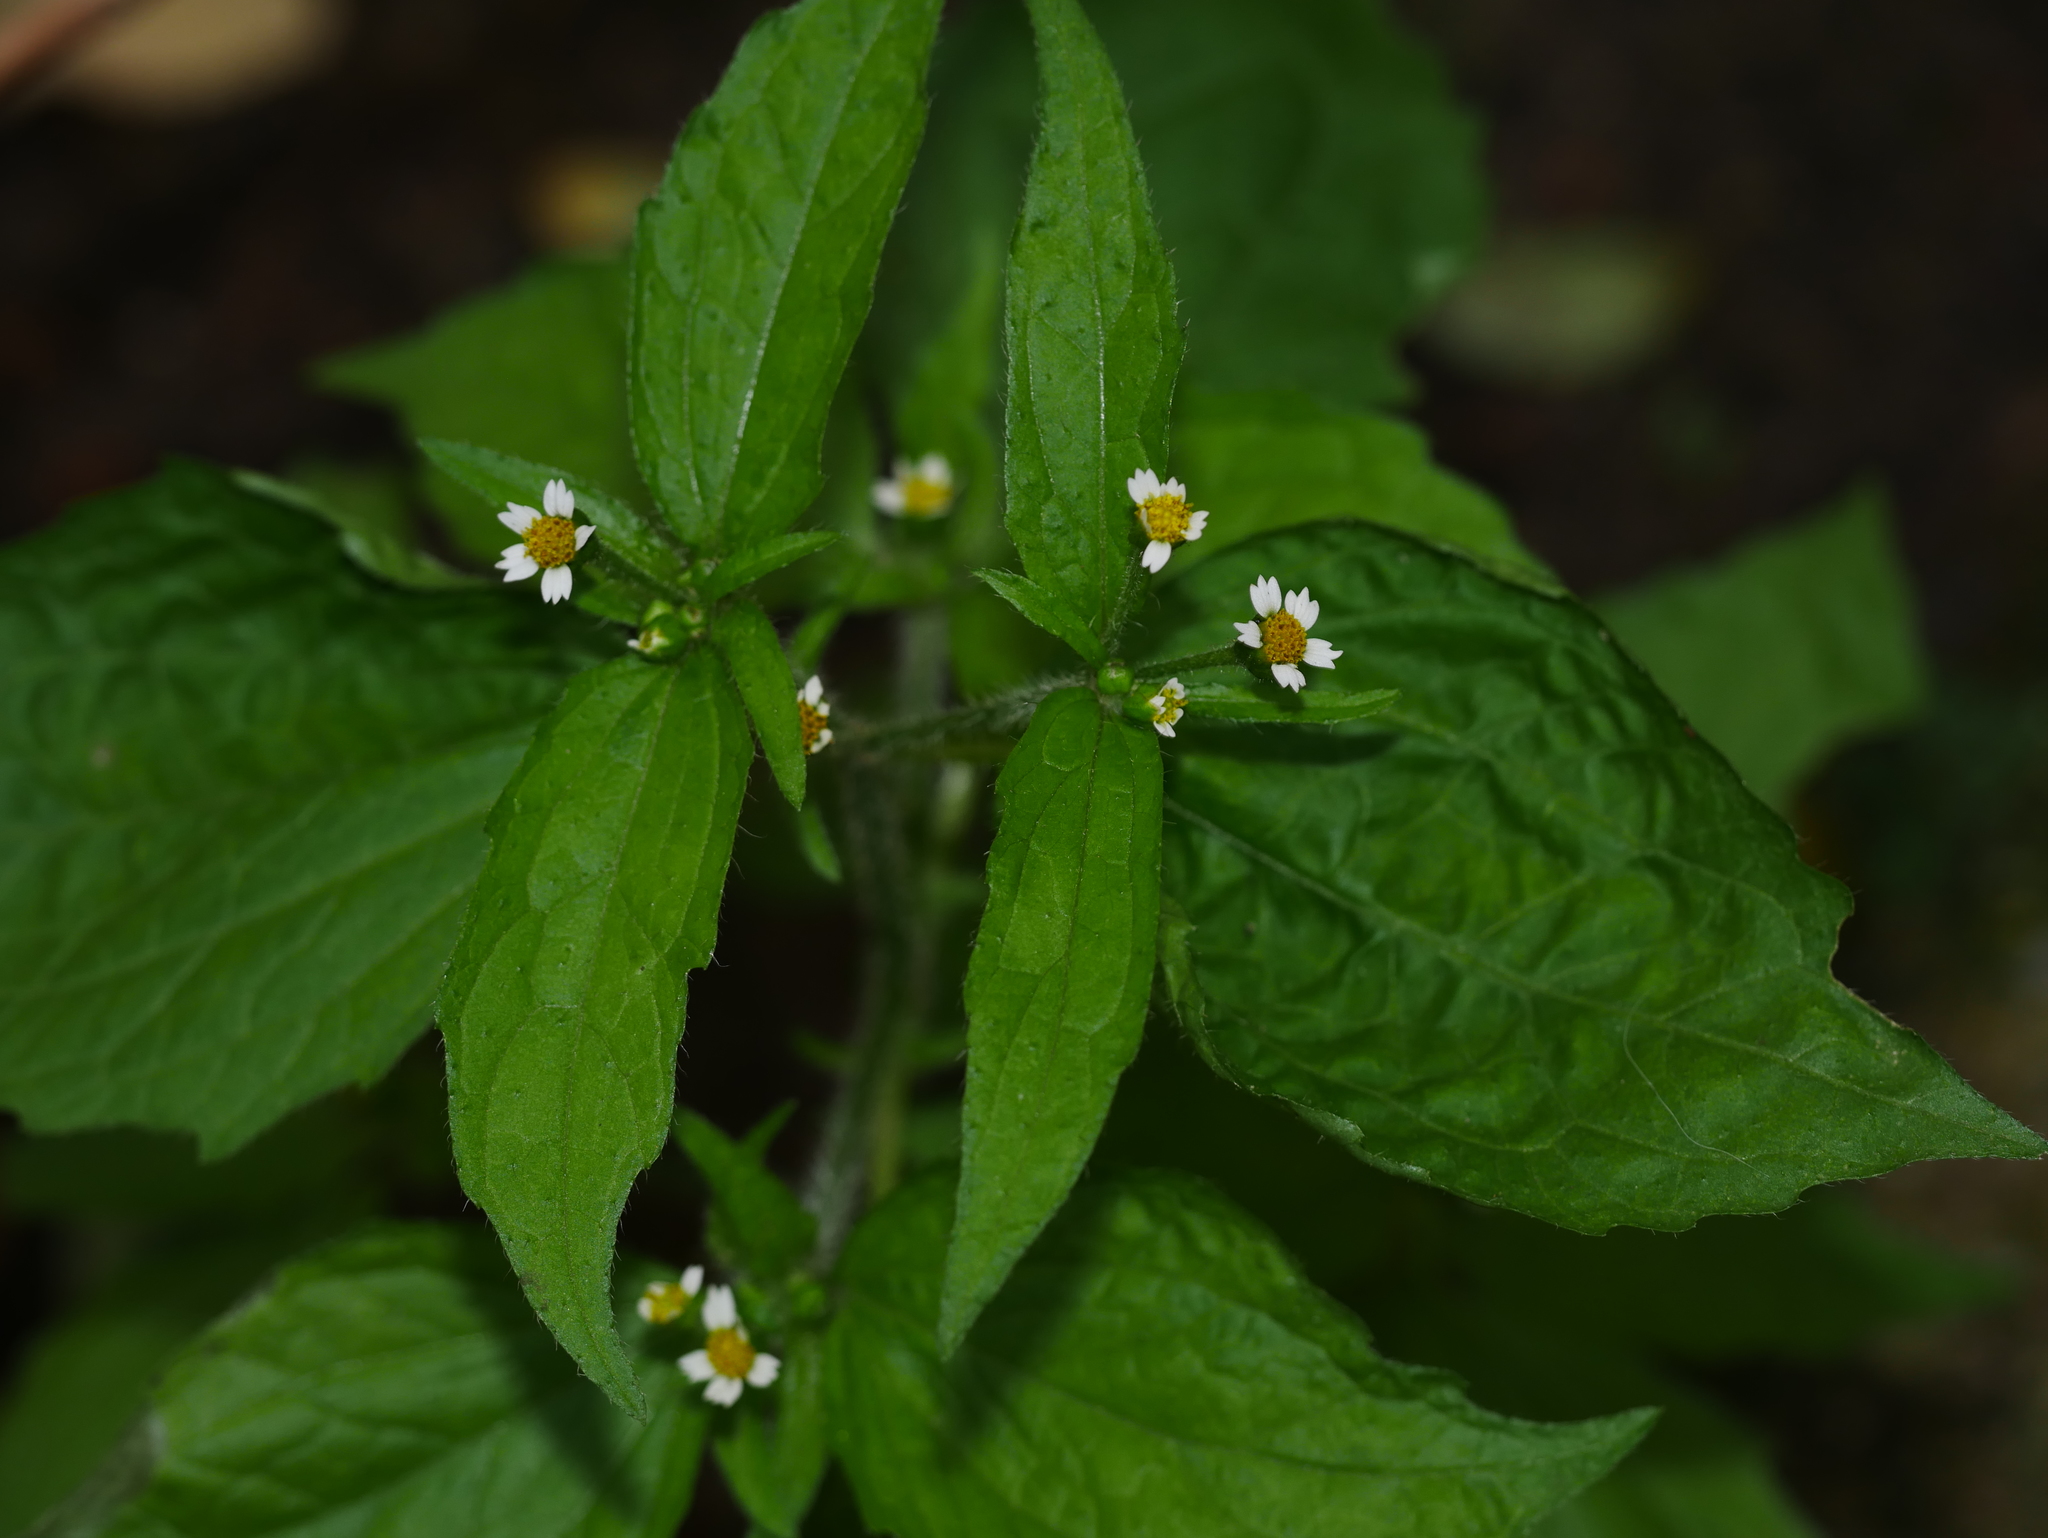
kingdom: Plantae
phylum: Tracheophyta
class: Magnoliopsida
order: Asterales
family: Asteraceae
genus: Galinsoga
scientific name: Galinsoga quadriradiata
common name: Shaggy soldier
